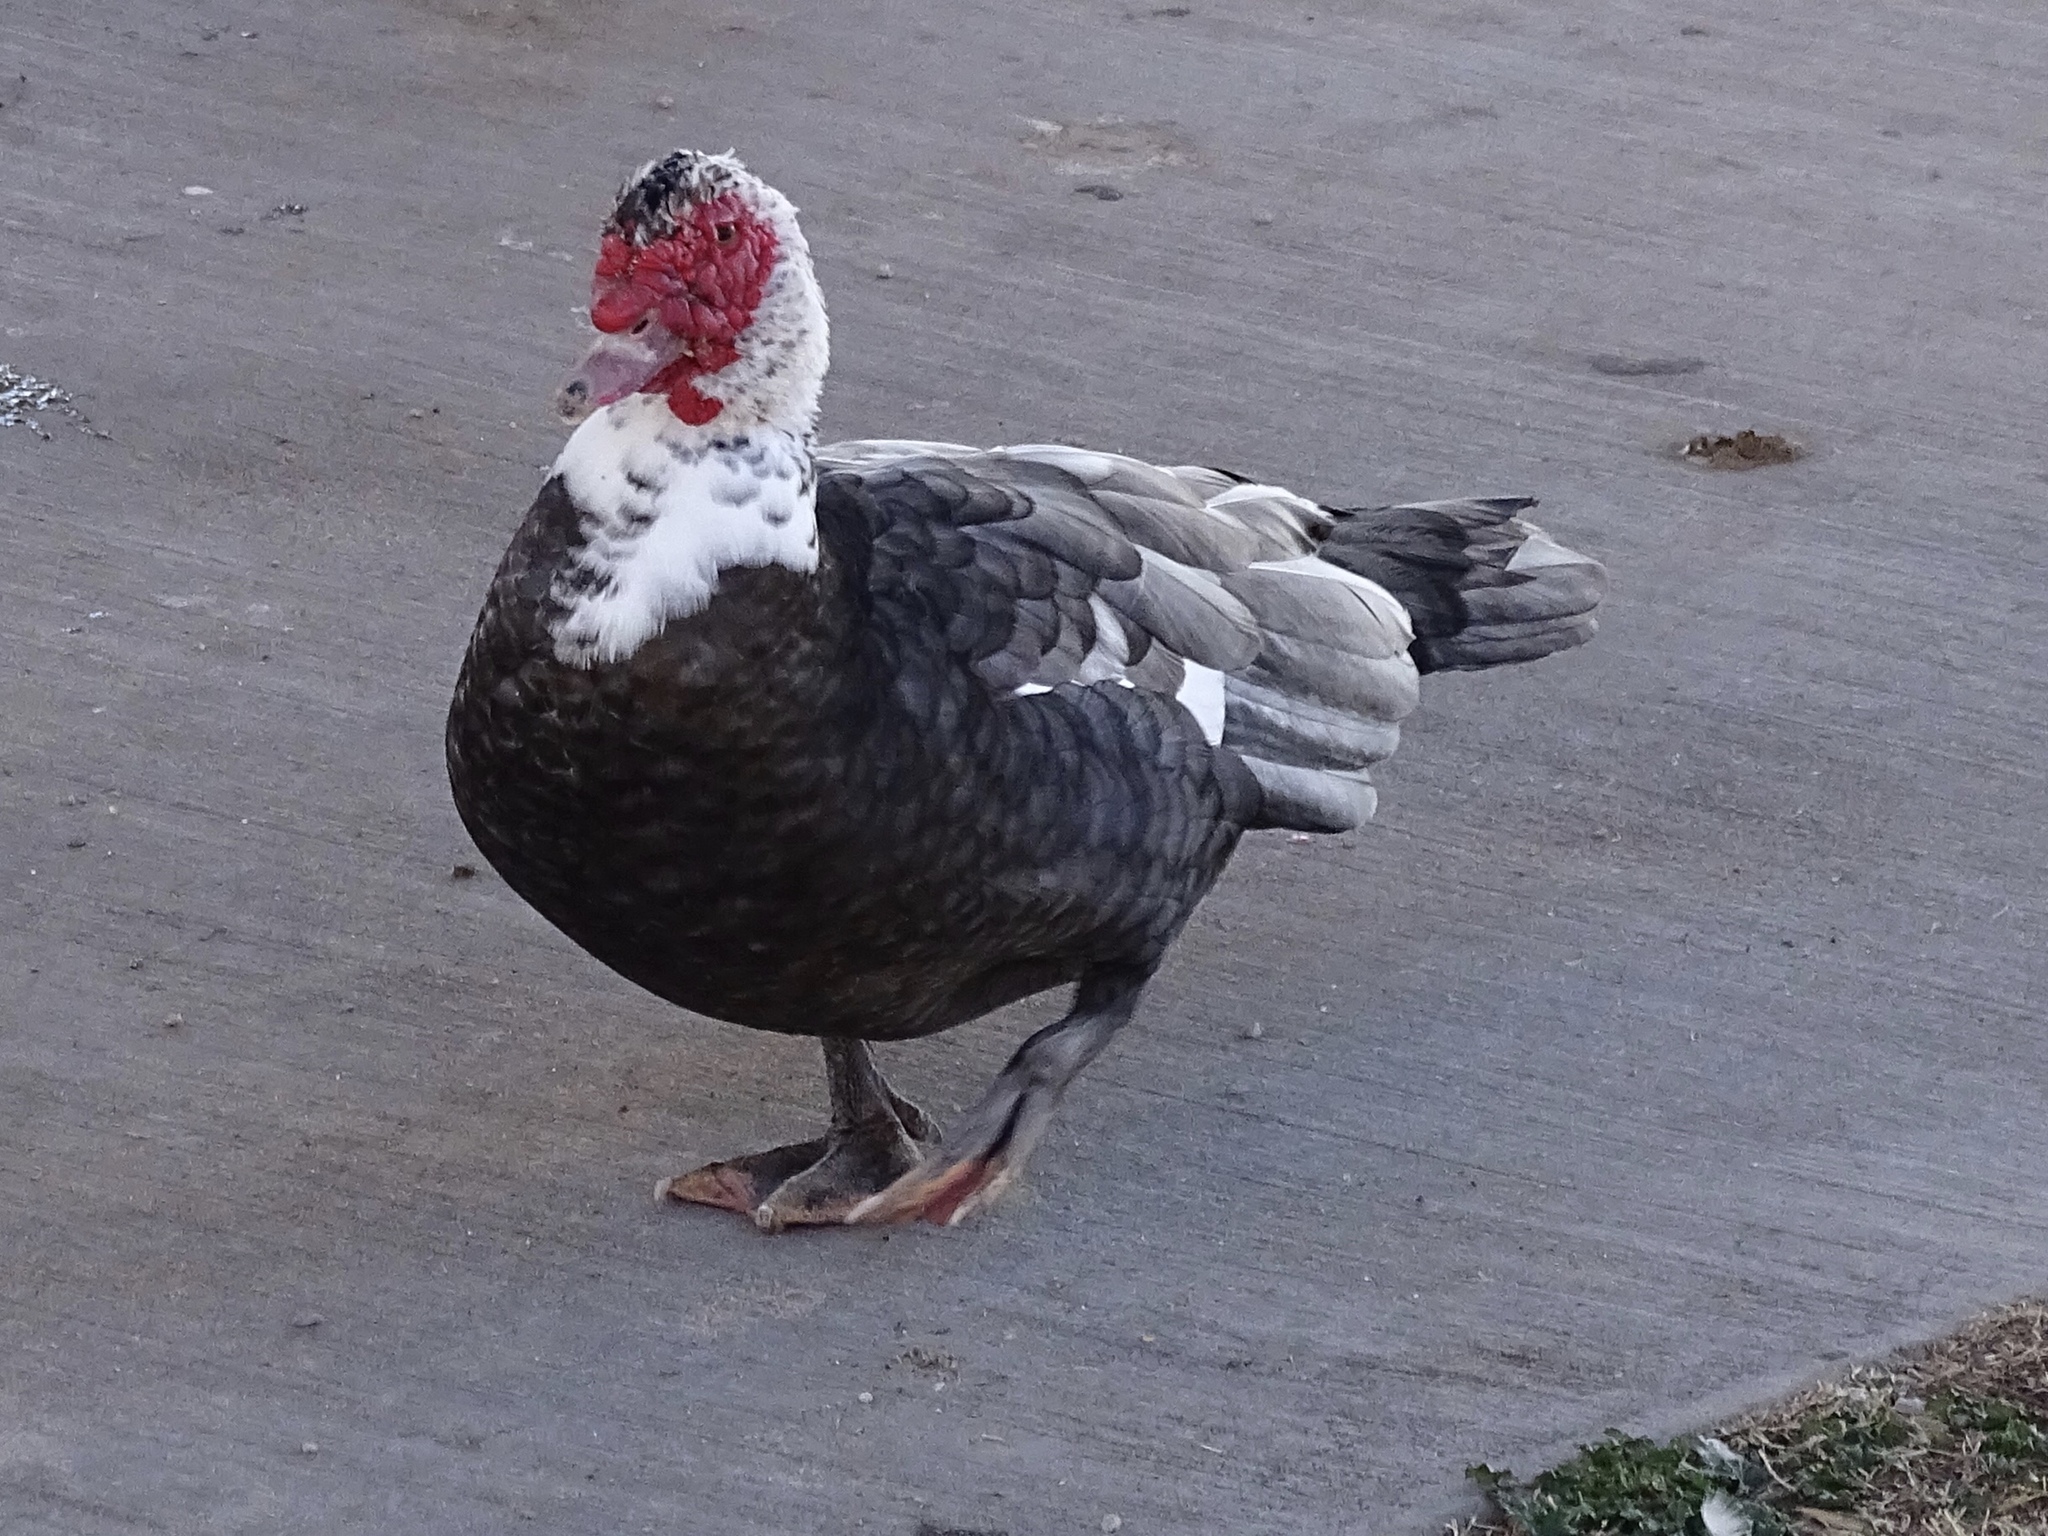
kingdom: Animalia
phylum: Chordata
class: Aves
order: Anseriformes
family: Anatidae
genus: Cairina
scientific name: Cairina moschata
